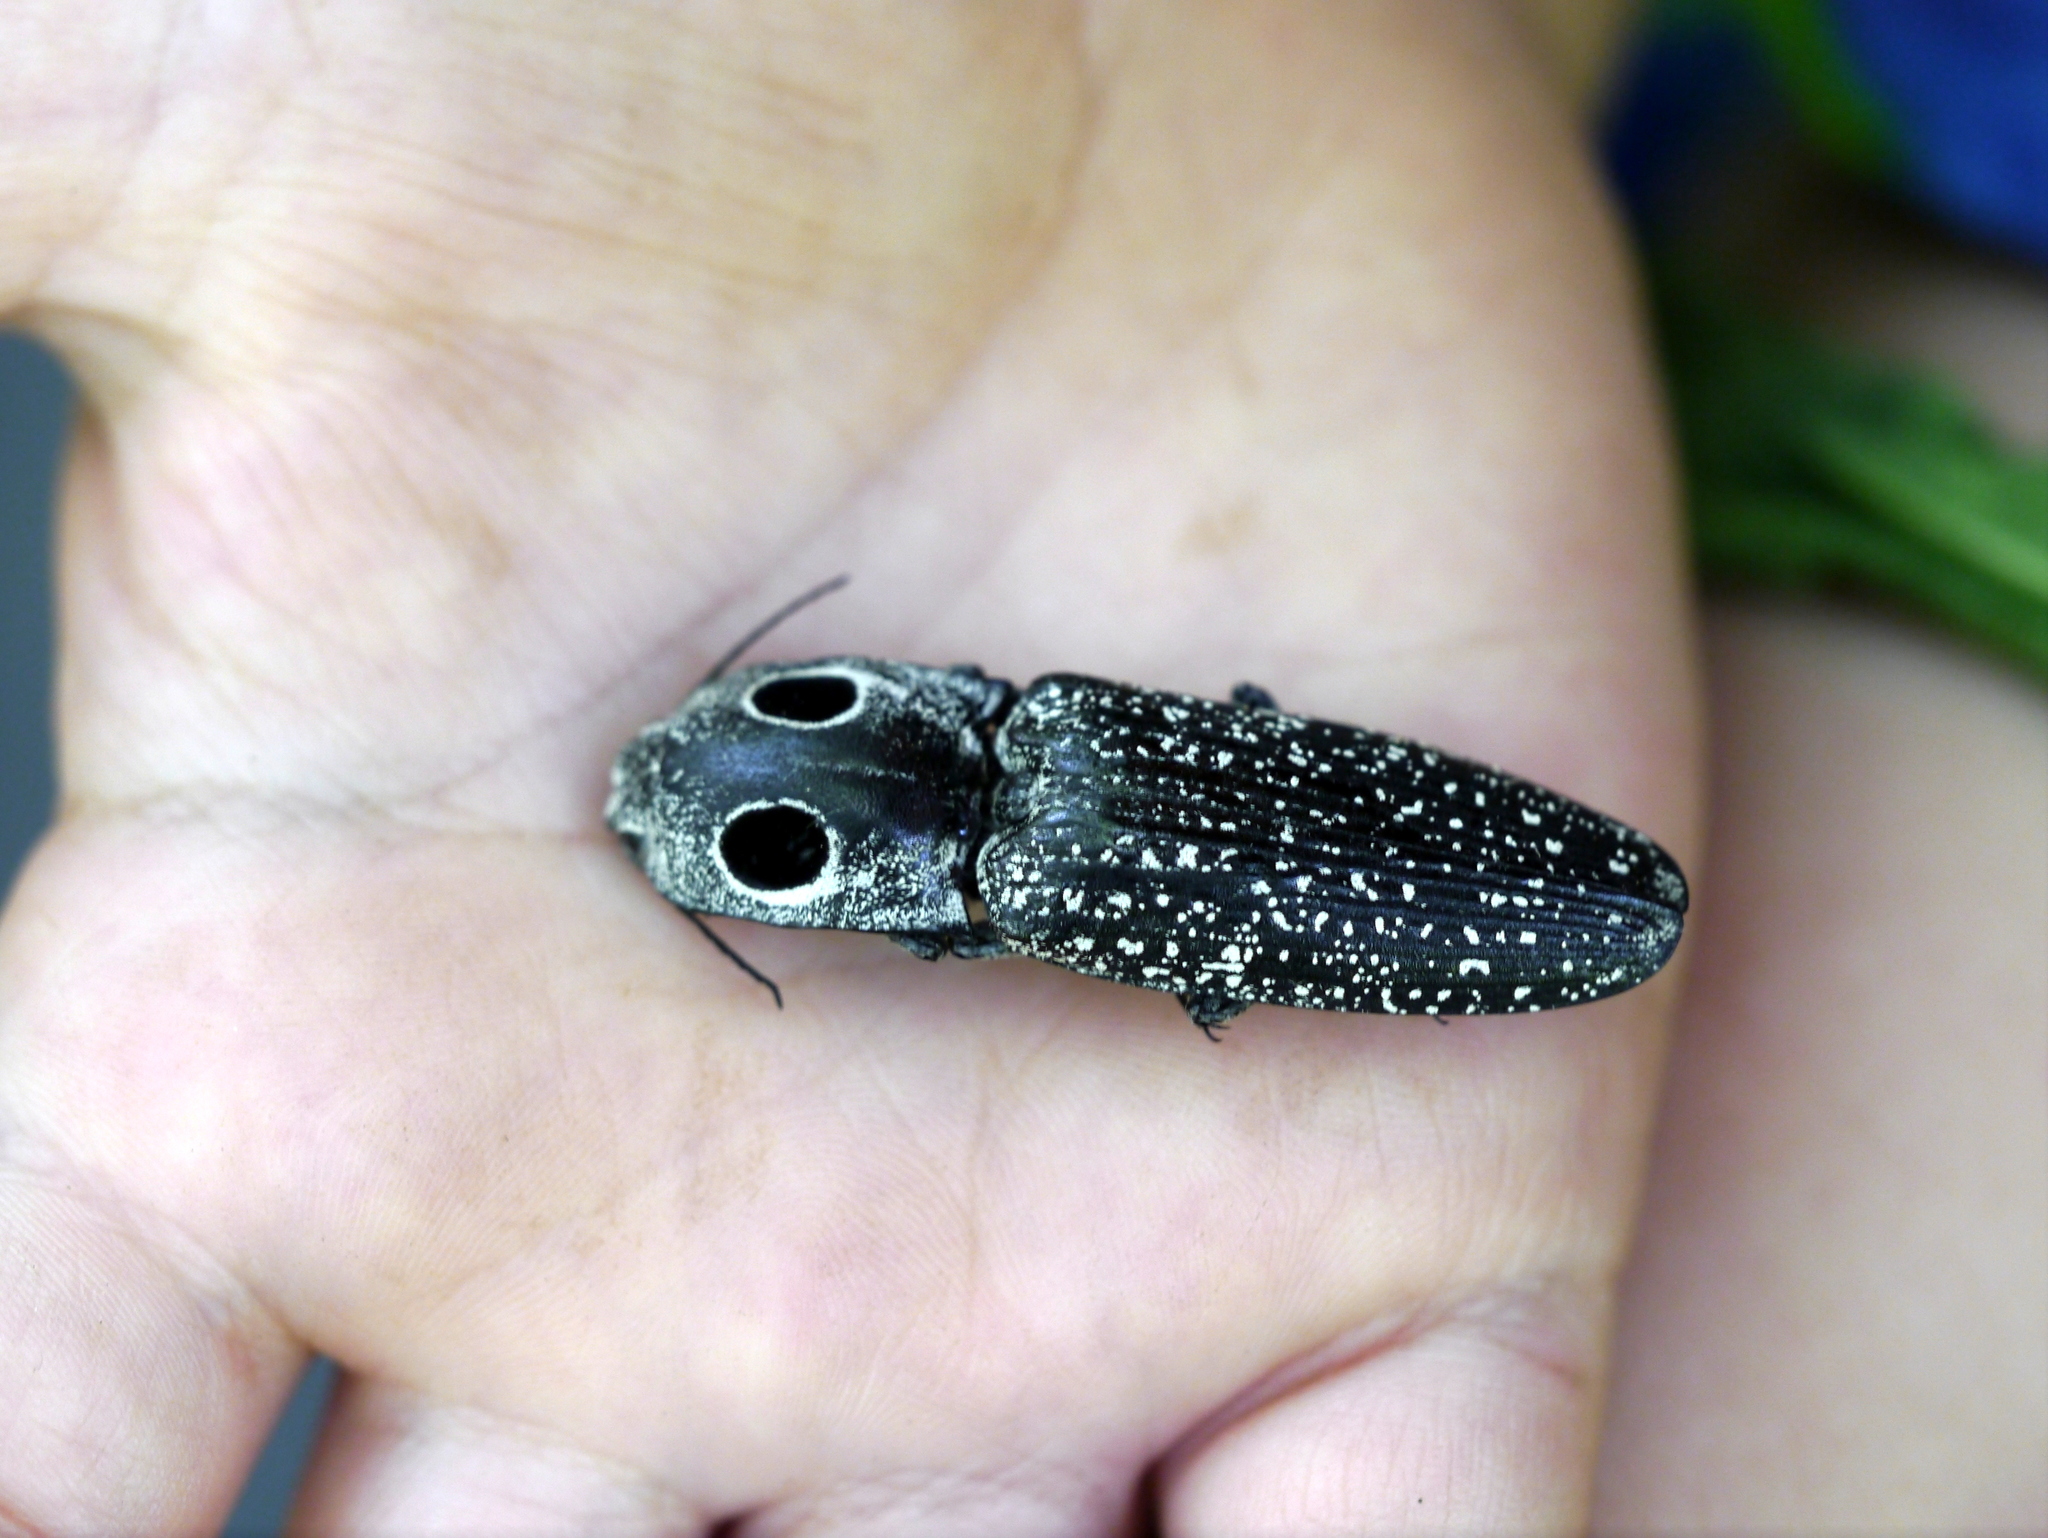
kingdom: Animalia
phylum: Arthropoda
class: Insecta
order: Coleoptera
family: Elateridae
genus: Alaus
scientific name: Alaus oculatus
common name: Eastern eyed click beetle
